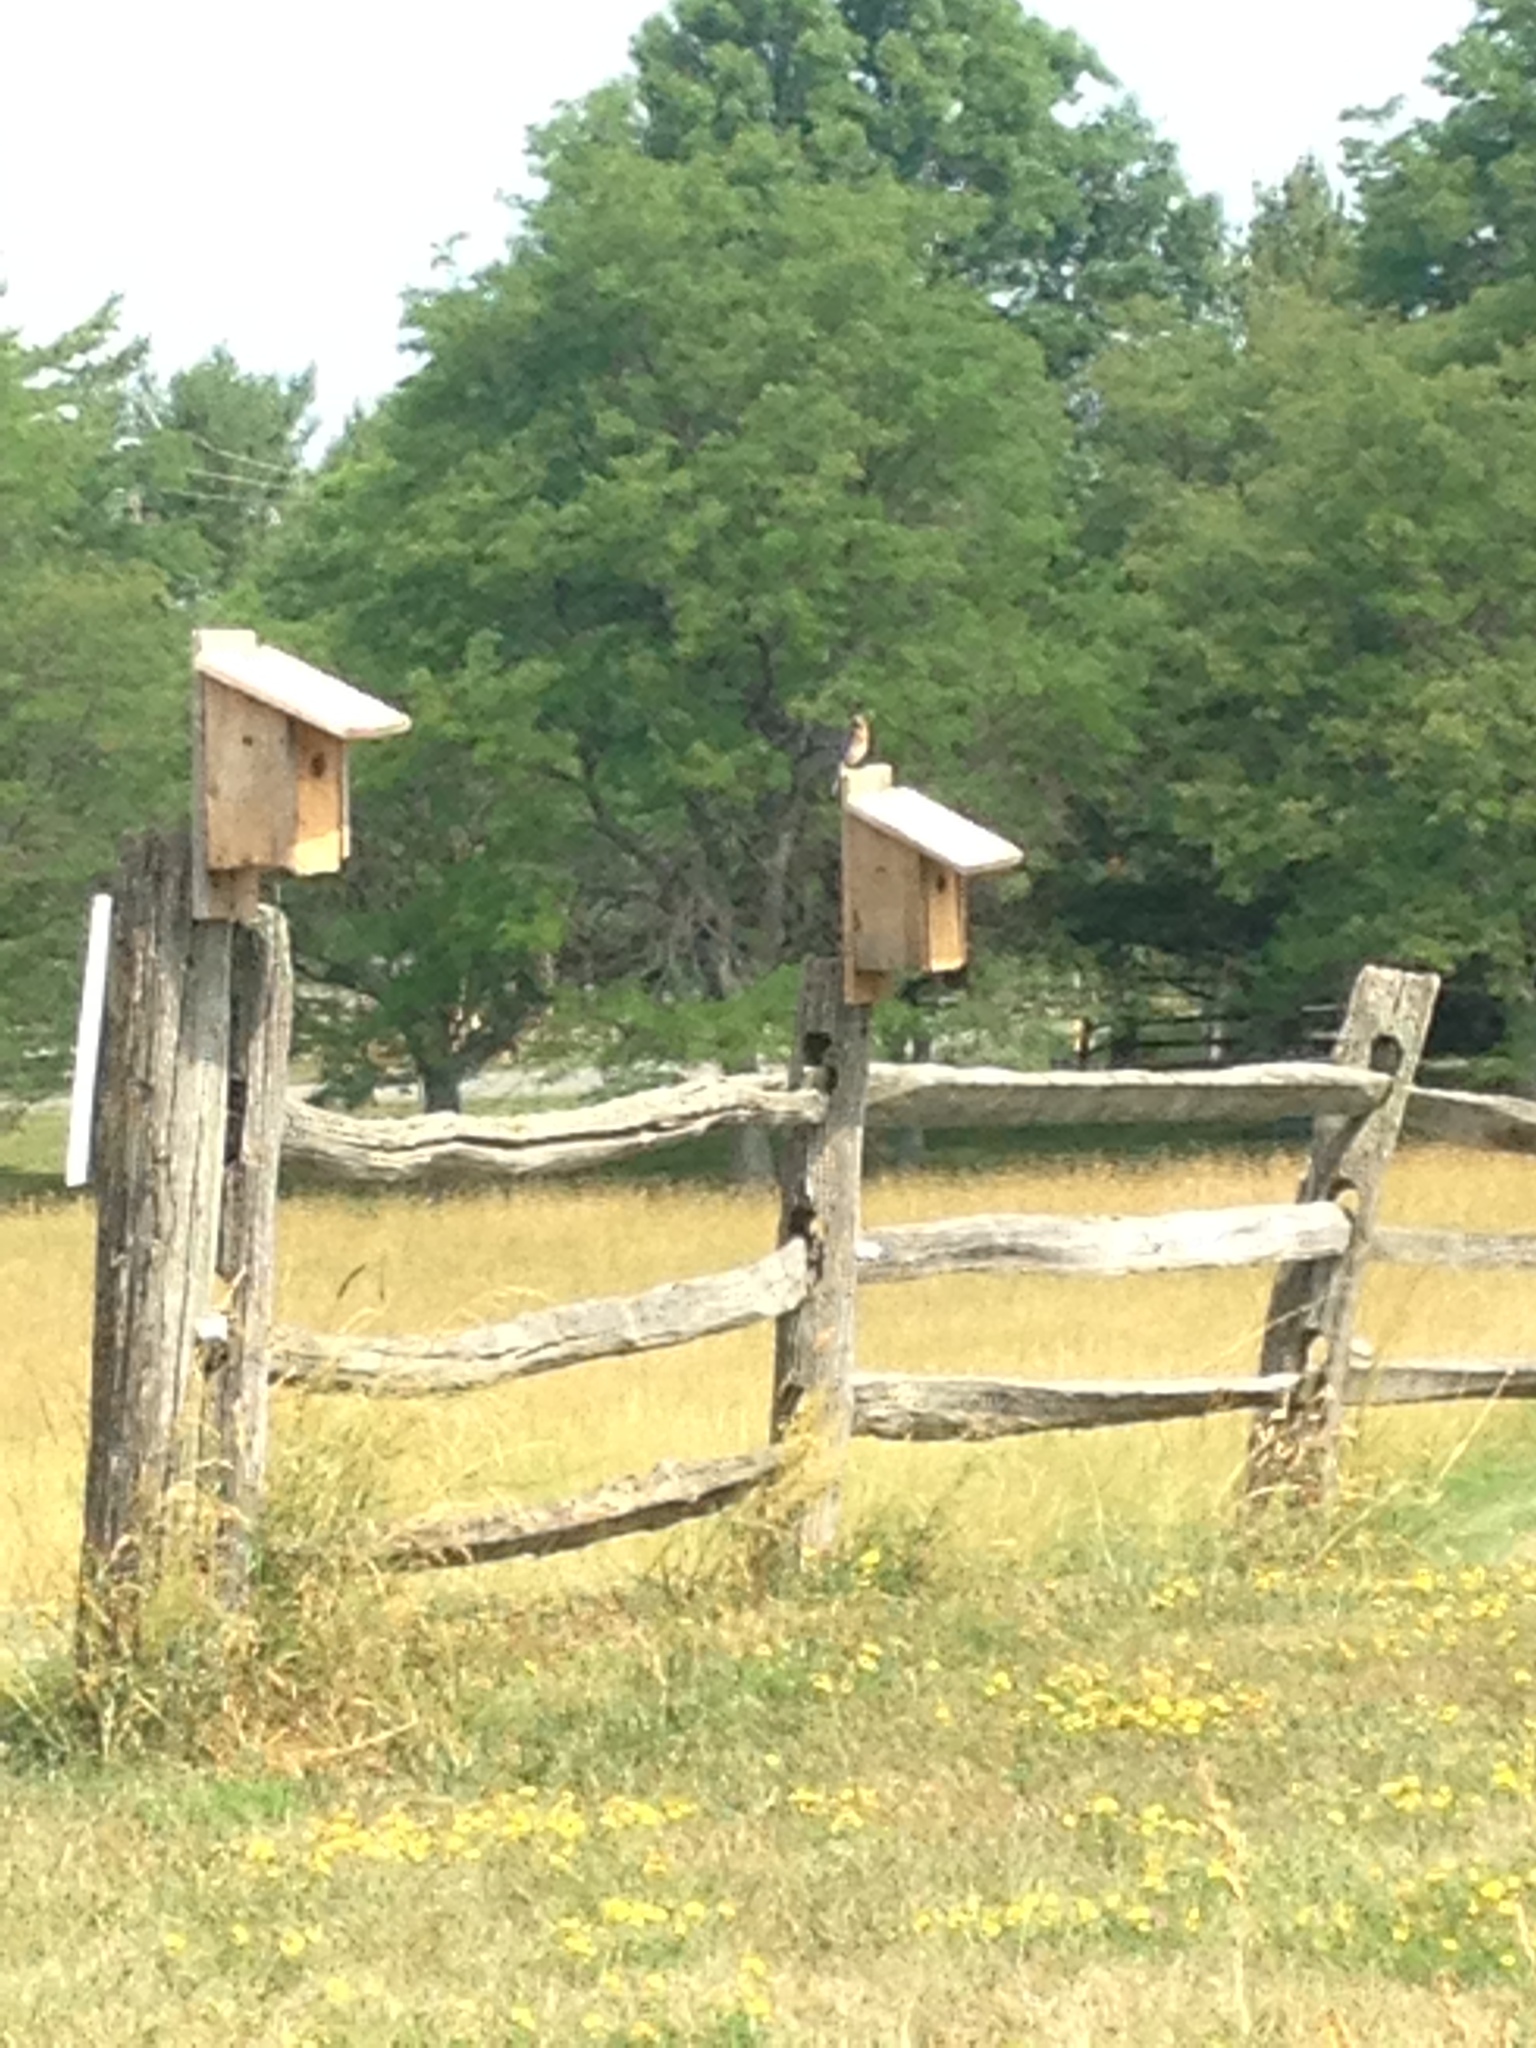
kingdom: Animalia
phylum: Chordata
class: Aves
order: Passeriformes
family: Turdidae
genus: Sialia
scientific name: Sialia sialis
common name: Eastern bluebird
